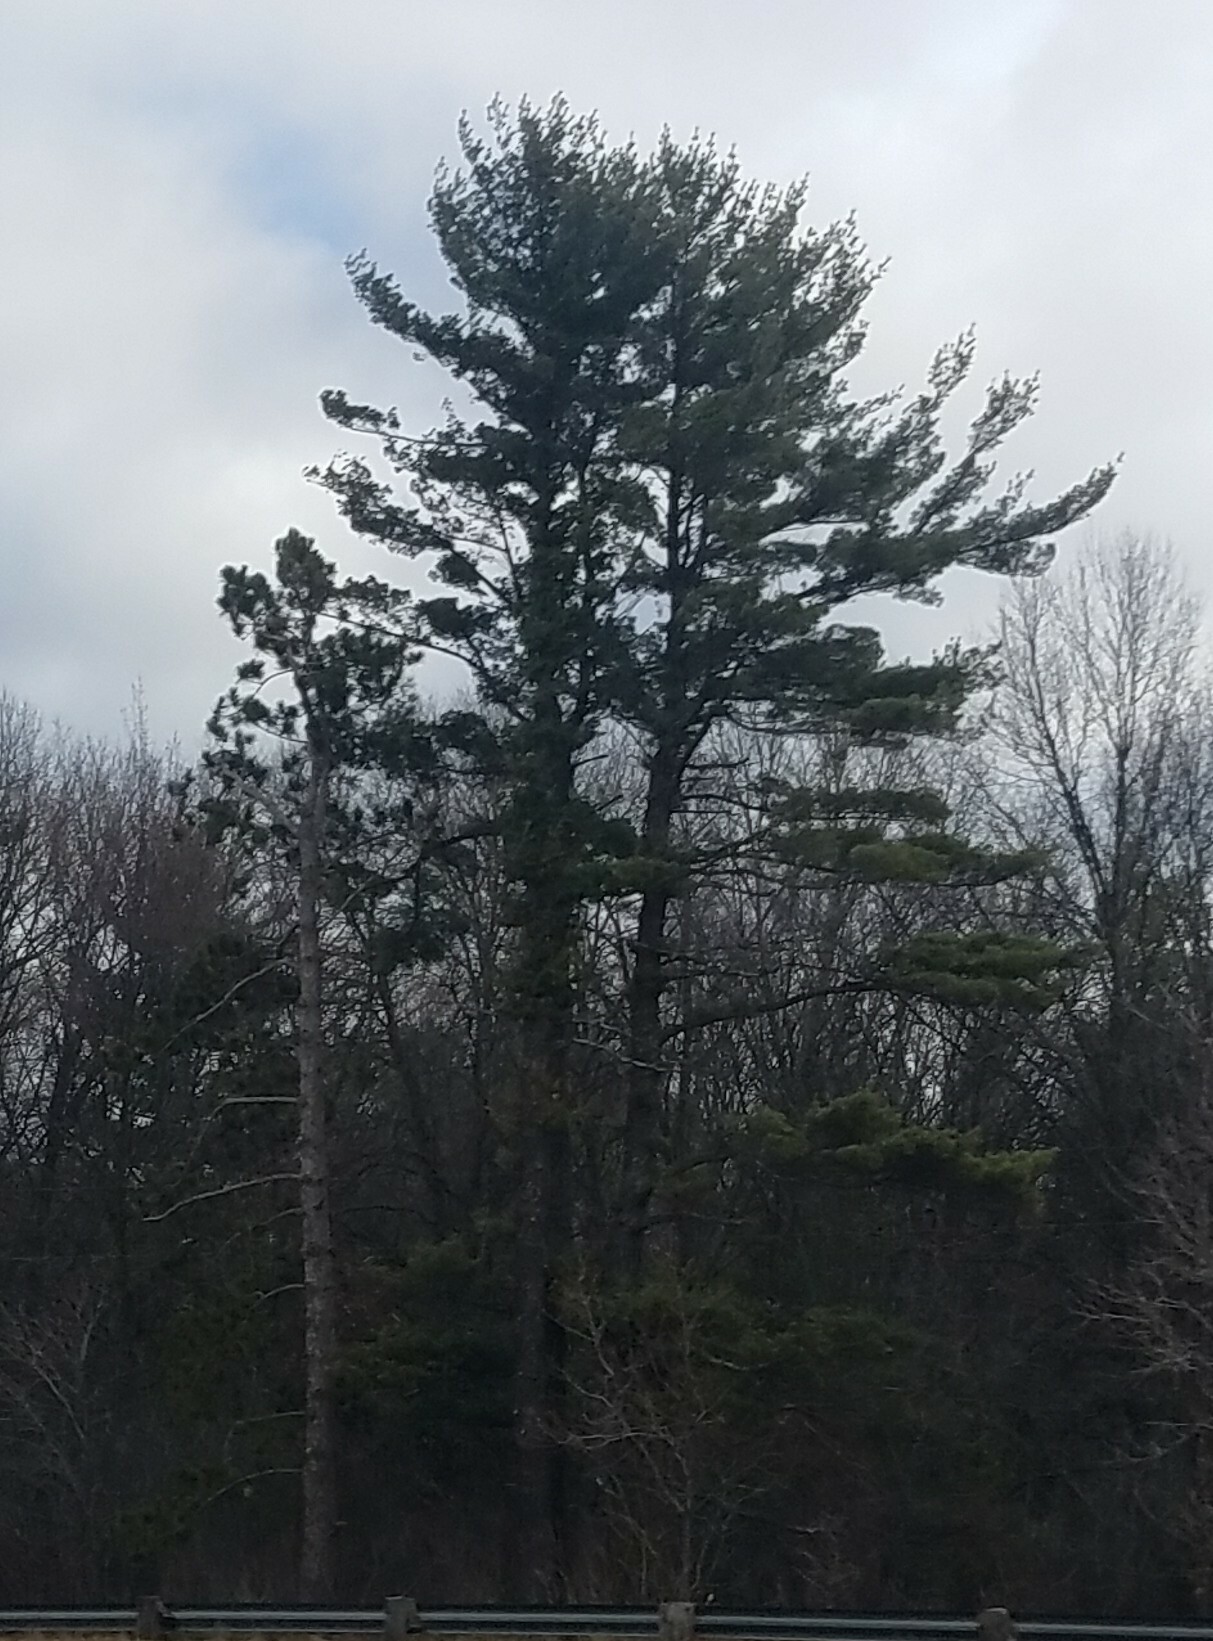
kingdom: Plantae
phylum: Tracheophyta
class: Pinopsida
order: Pinales
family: Pinaceae
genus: Pinus
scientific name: Pinus strobus
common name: Weymouth pine
